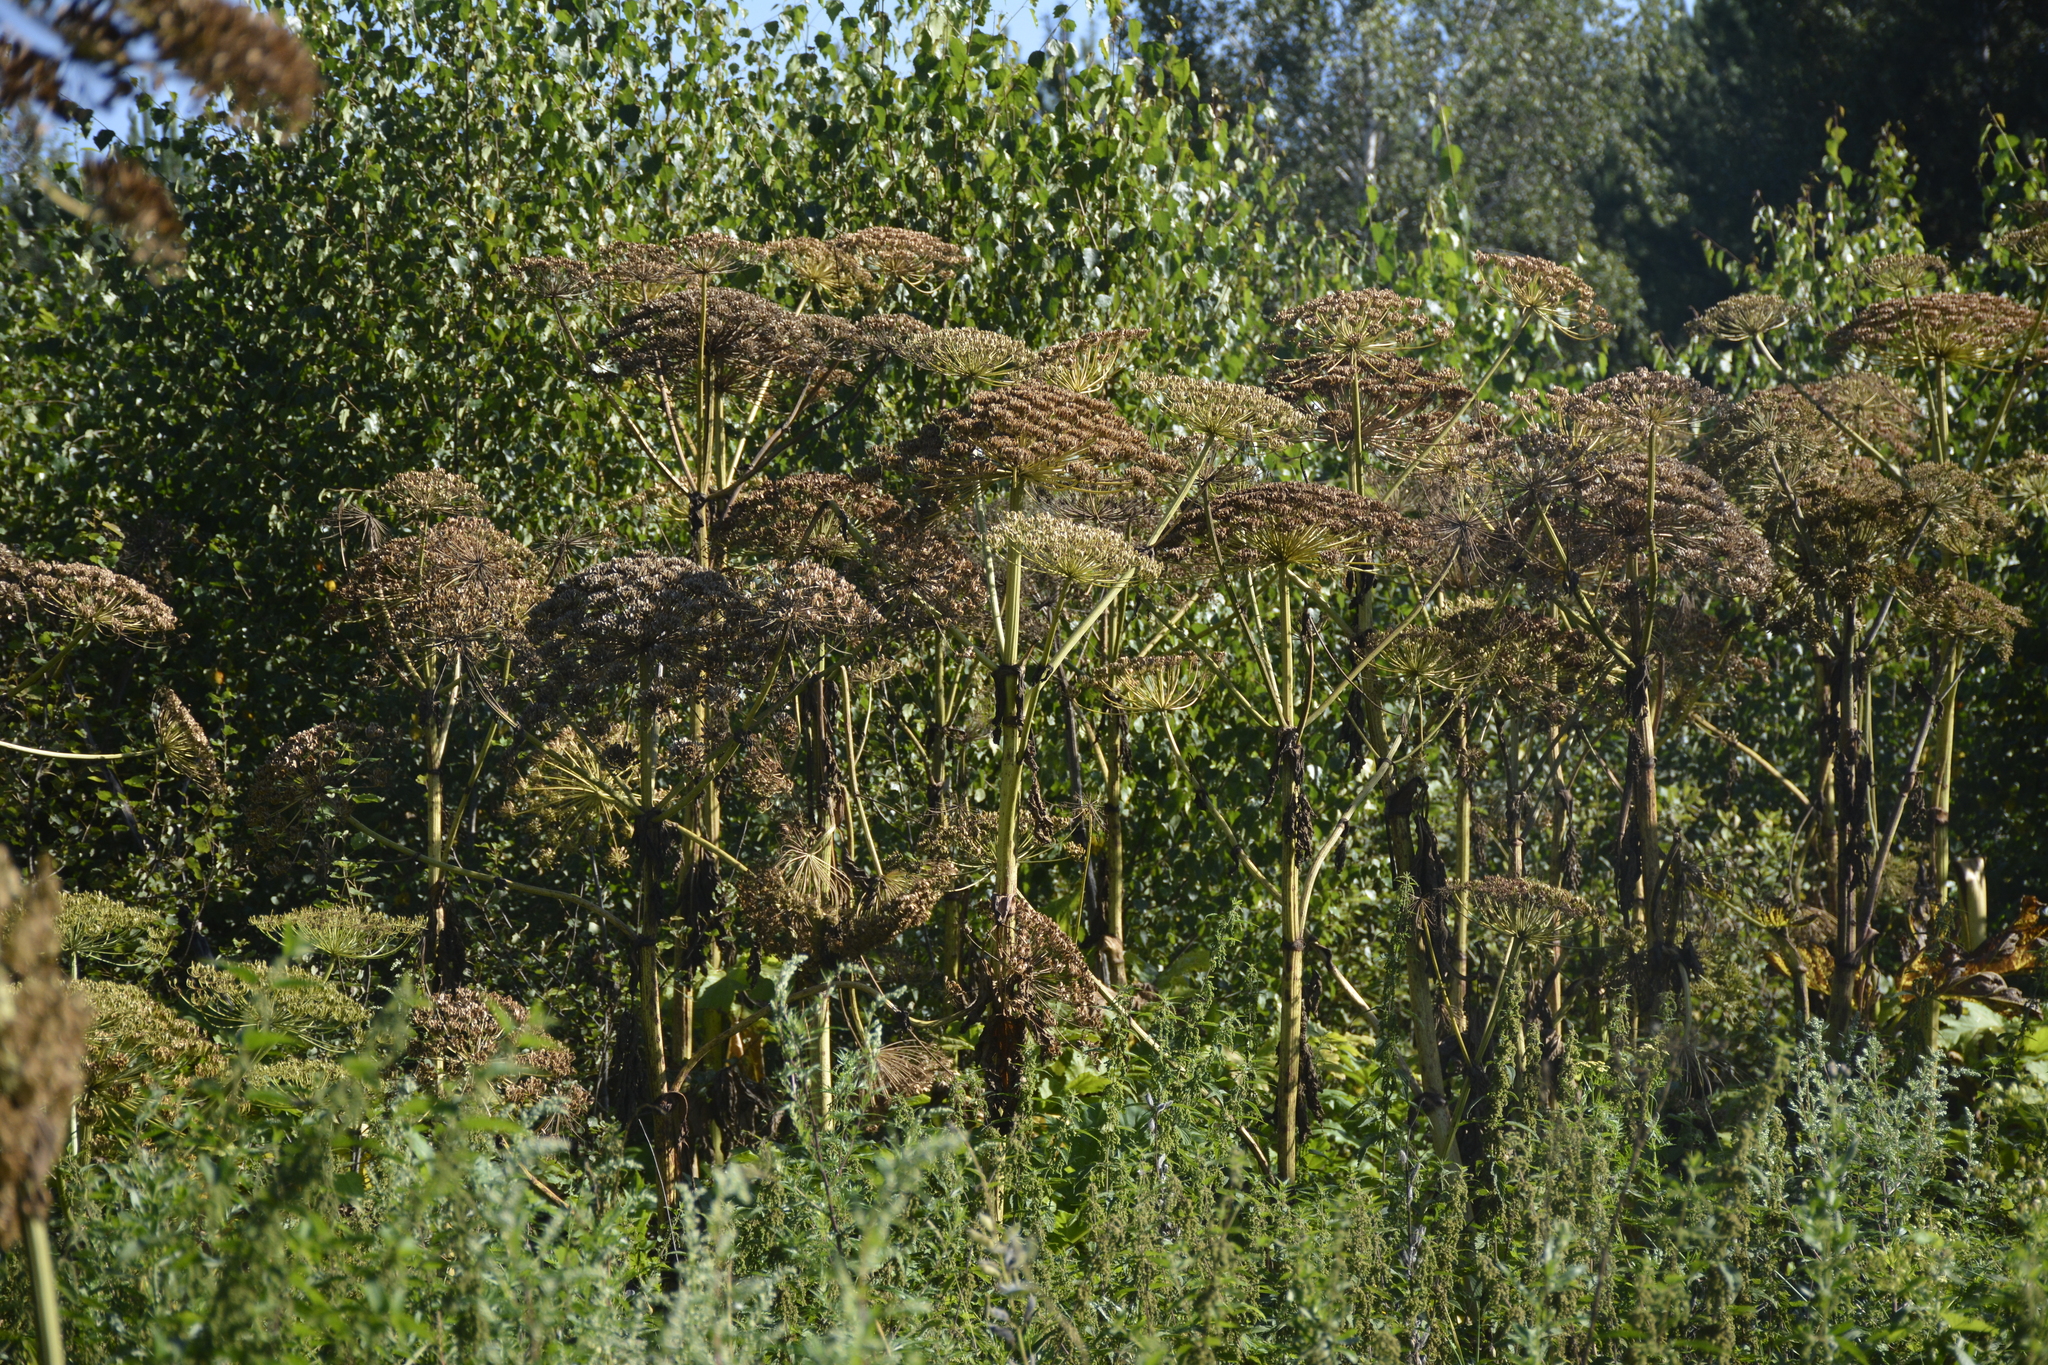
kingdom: Plantae
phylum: Tracheophyta
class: Magnoliopsida
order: Apiales
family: Apiaceae
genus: Heracleum
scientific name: Heracleum sosnowskyi
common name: Sosnowsky's hogweed
